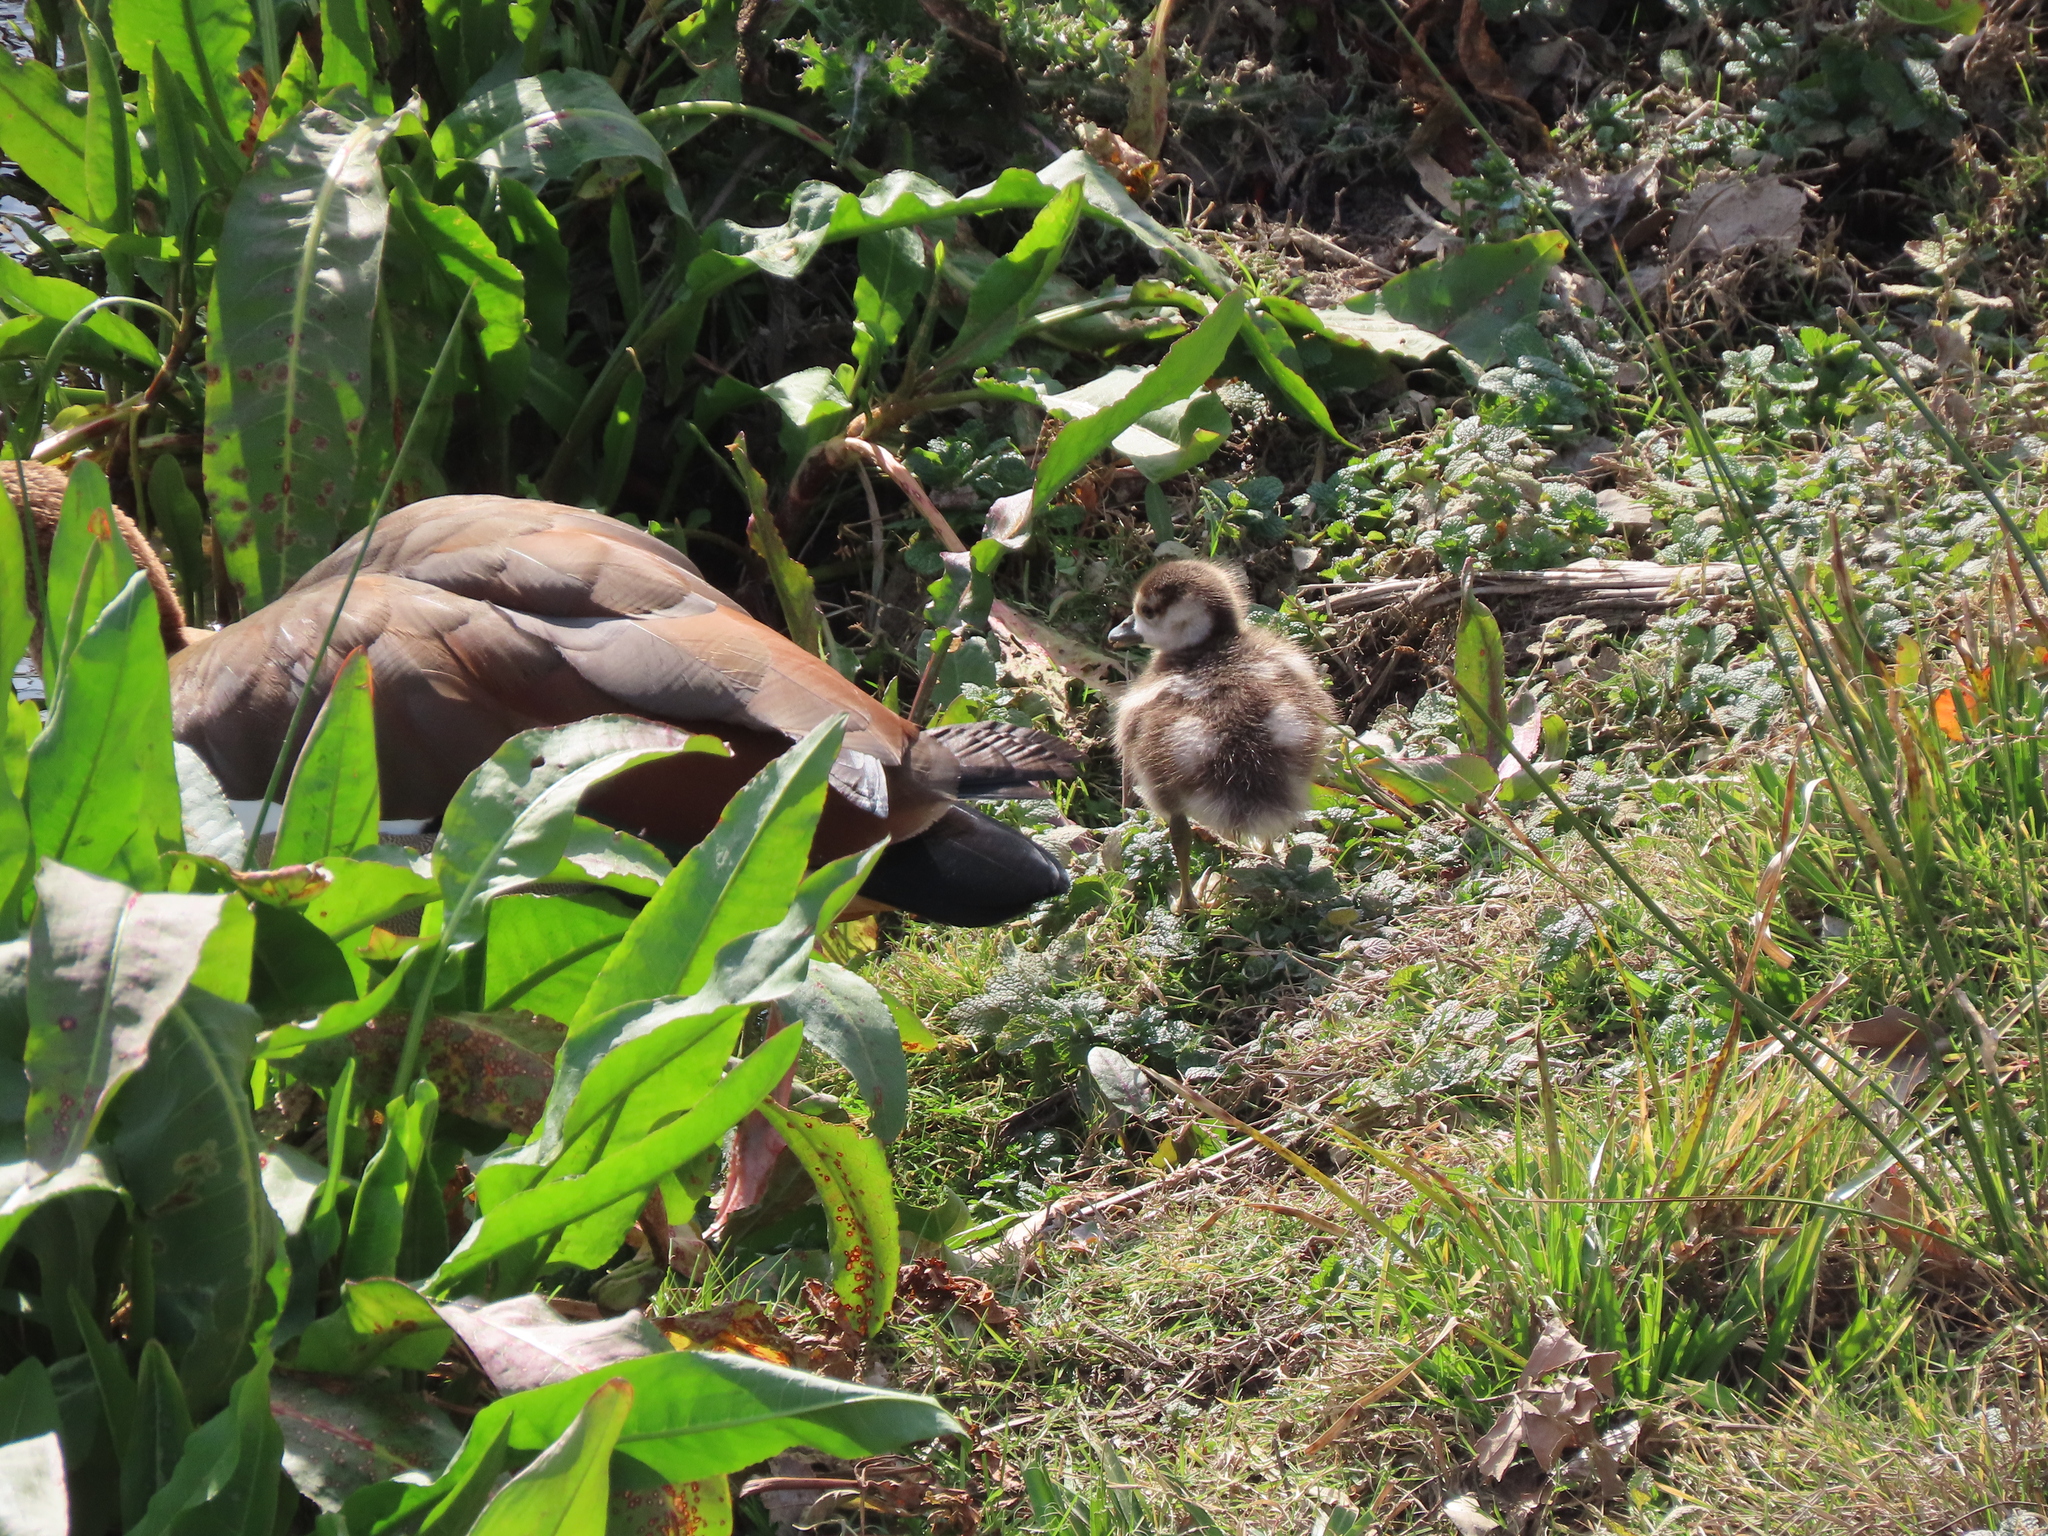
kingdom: Animalia
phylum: Chordata
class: Aves
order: Anseriformes
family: Anatidae
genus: Alopochen
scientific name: Alopochen aegyptiaca
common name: Egyptian goose
